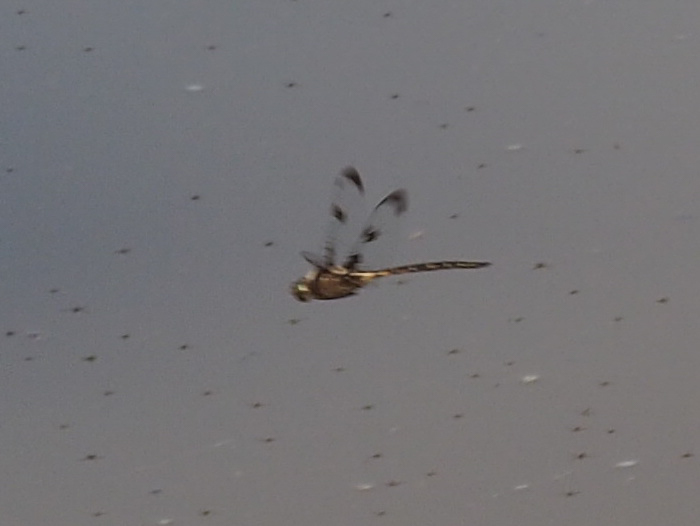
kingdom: Animalia
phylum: Arthropoda
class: Insecta
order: Odonata
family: Corduliidae
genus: Epitheca
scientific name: Epitheca princeps
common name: Prince baskettail
